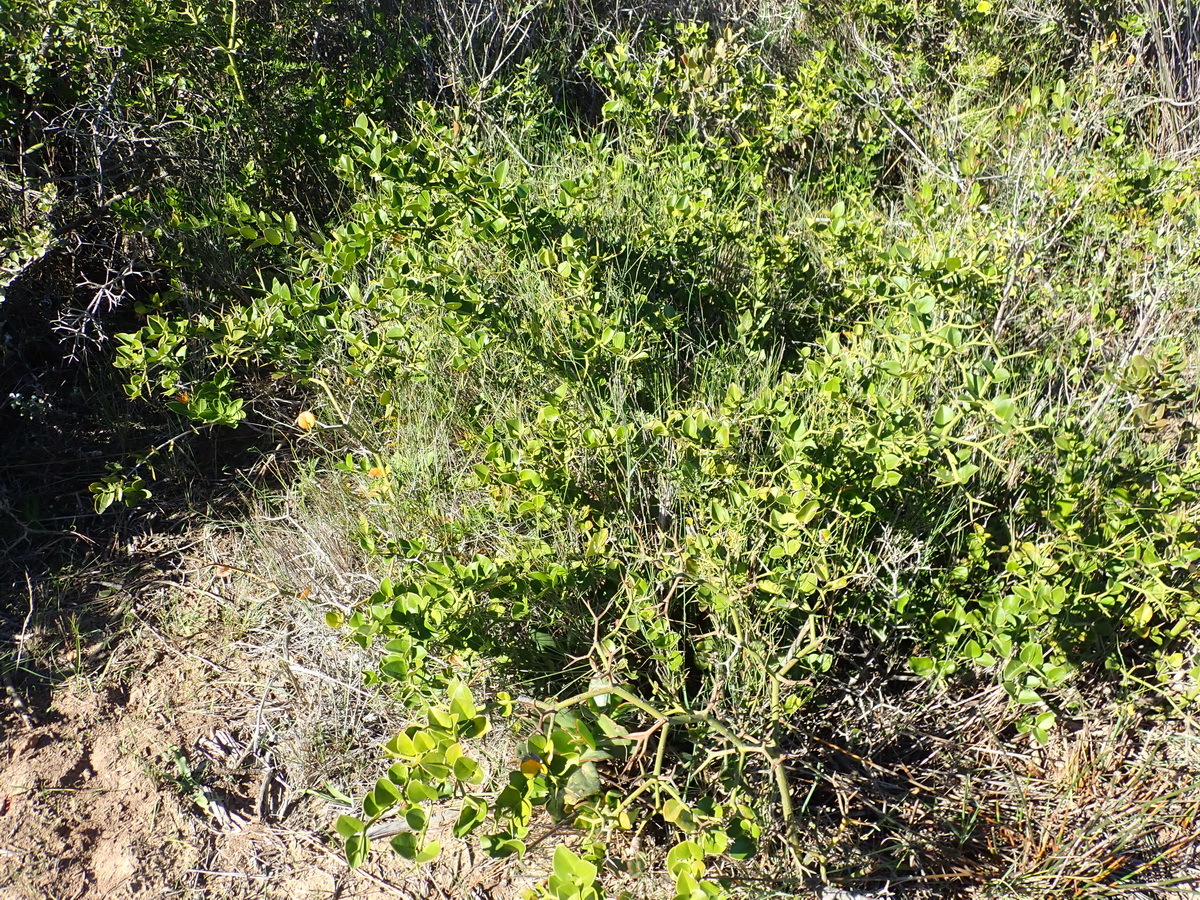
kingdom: Plantae
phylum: Tracheophyta
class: Magnoliopsida
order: Gentianales
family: Apocynaceae
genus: Carissa
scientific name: Carissa bispinosa
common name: Forest num-num
